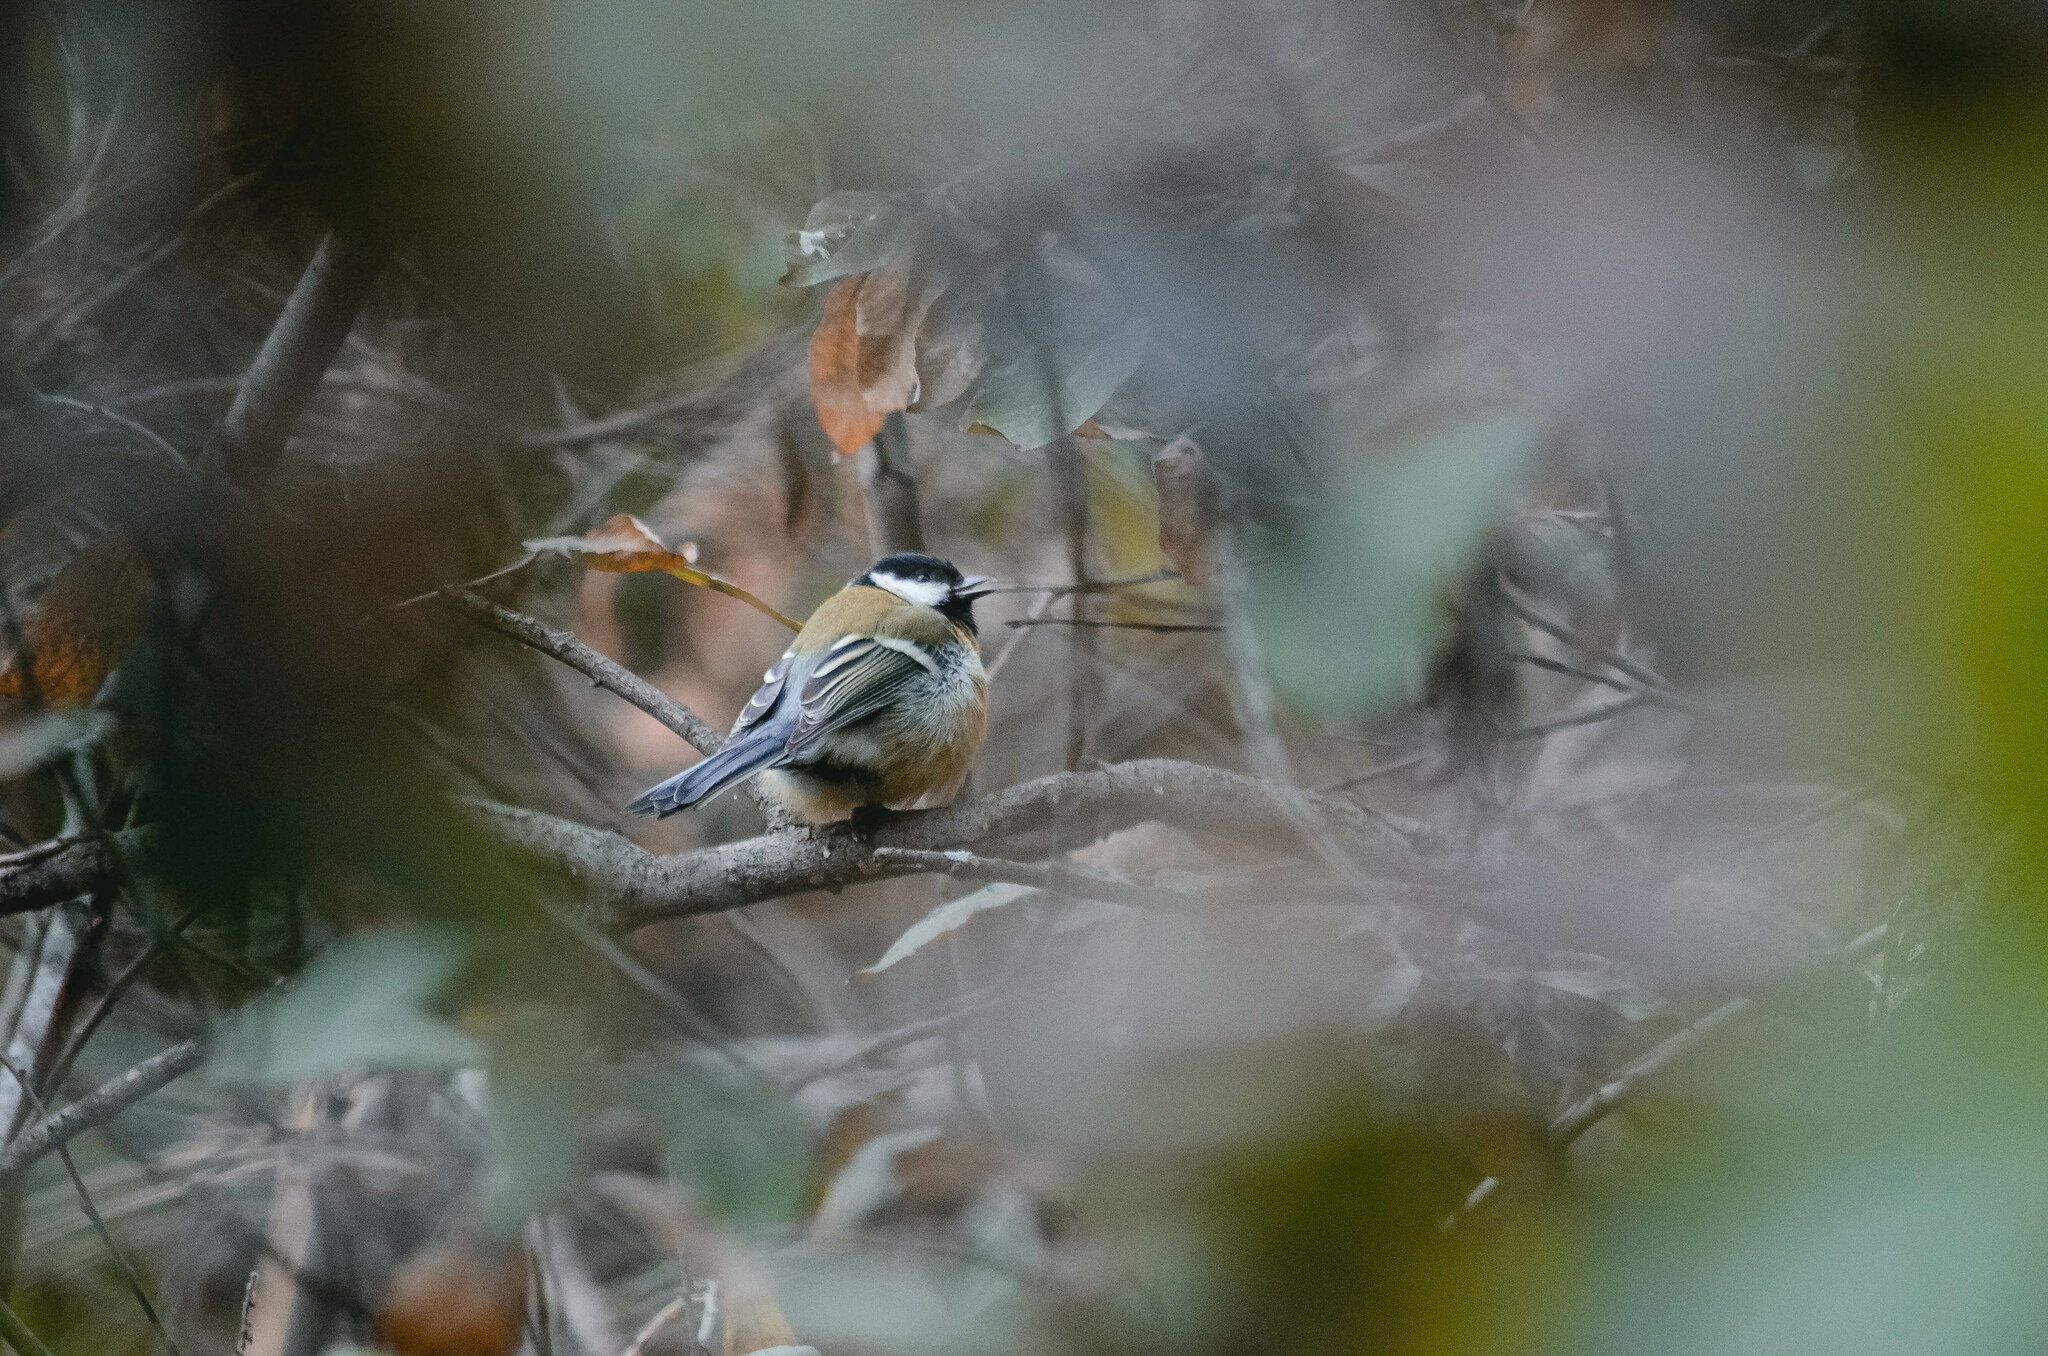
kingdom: Animalia
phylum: Chordata
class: Aves
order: Passeriformes
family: Paridae
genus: Parus
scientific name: Parus major
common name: Great tit
